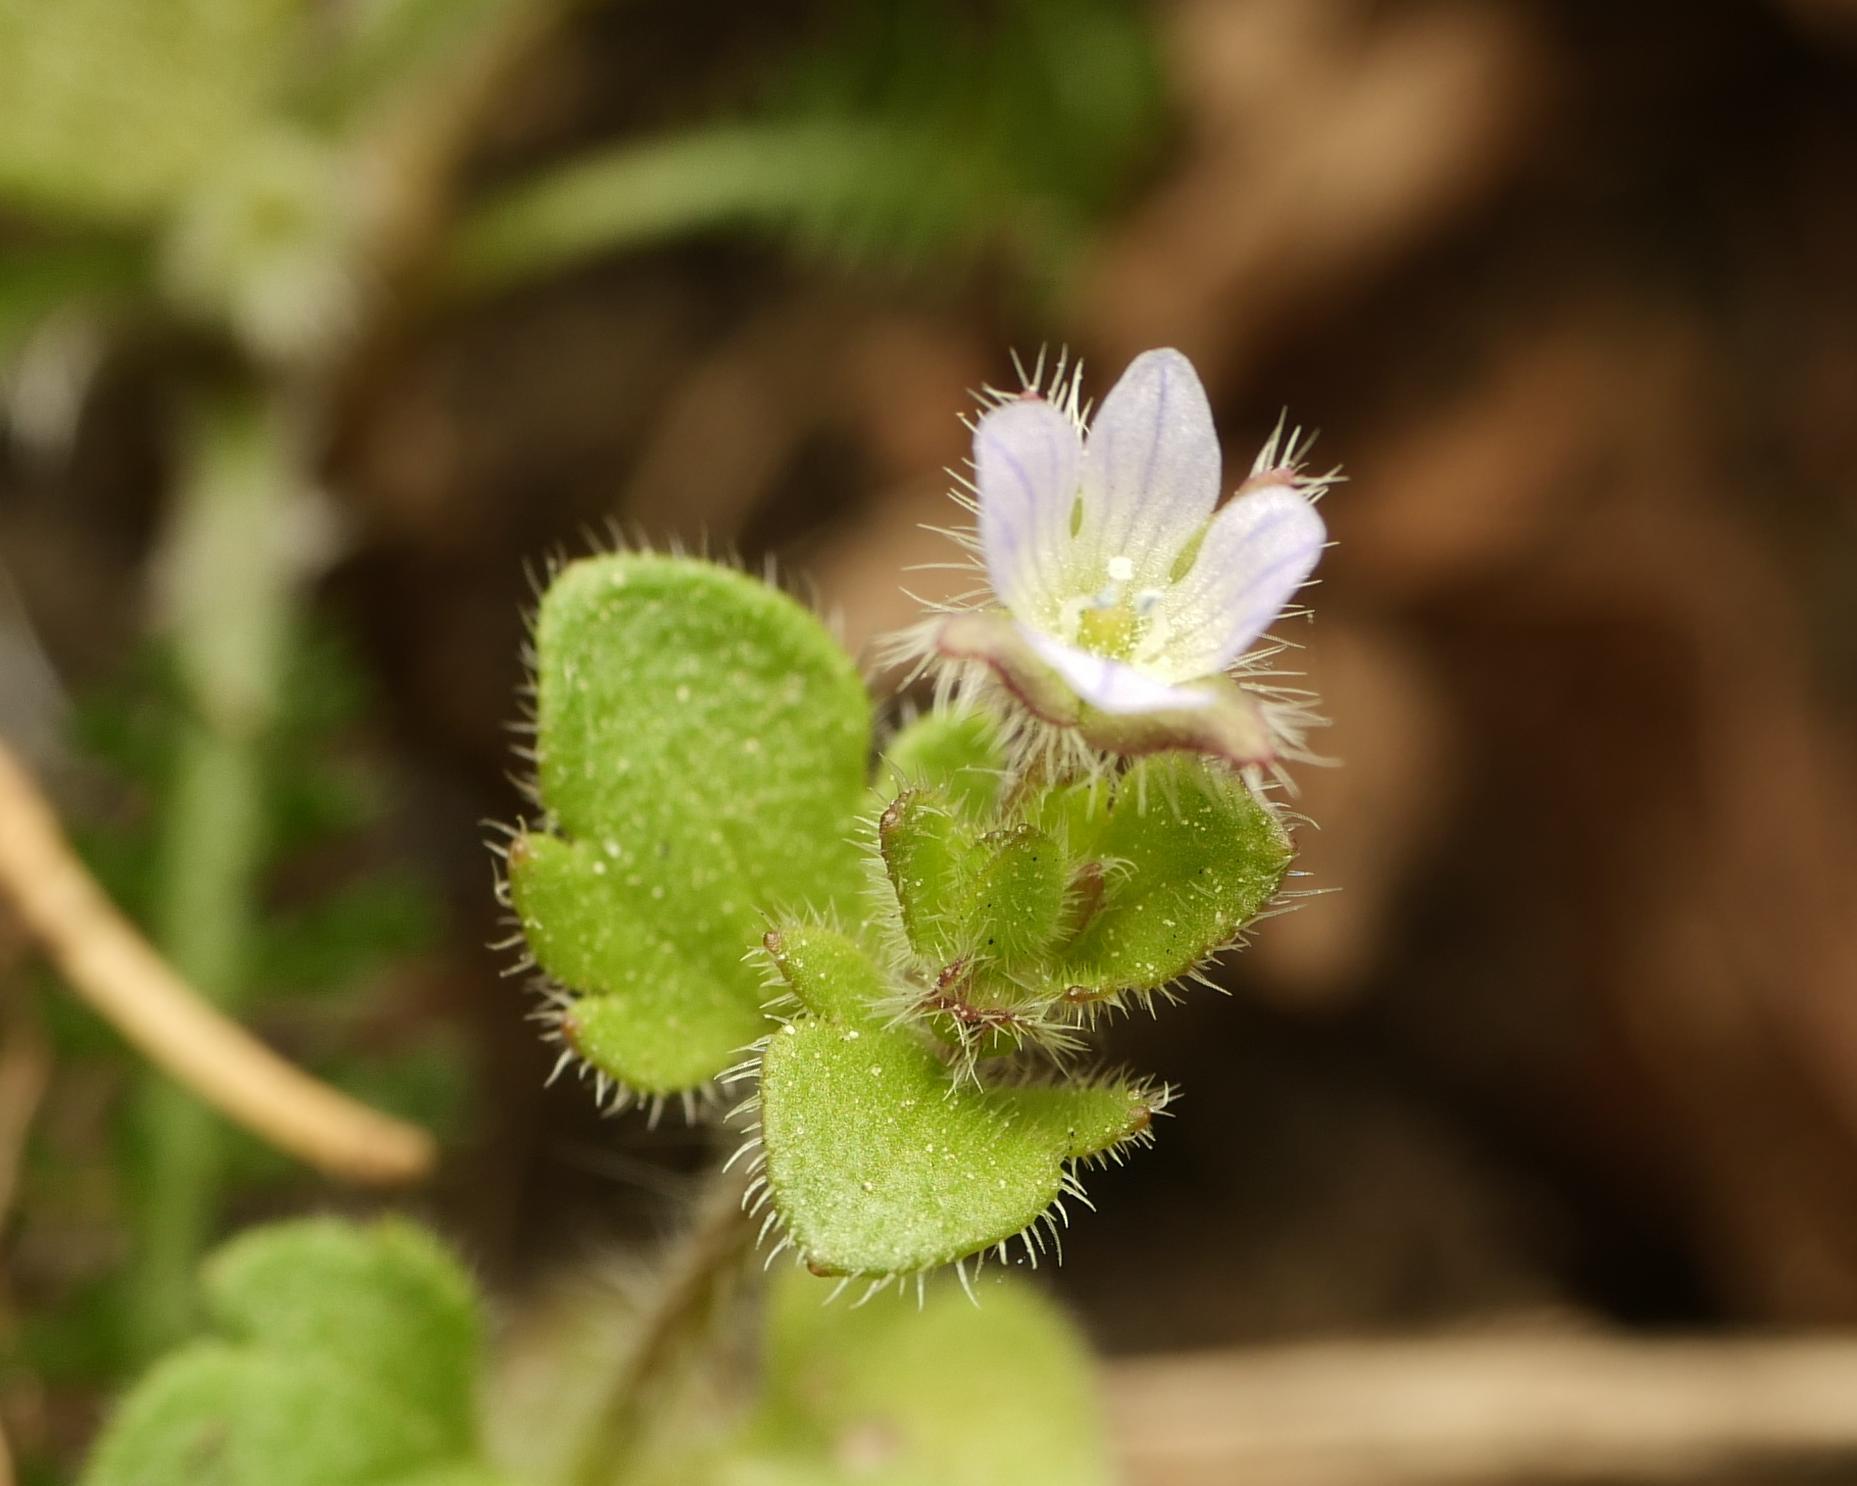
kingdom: Plantae
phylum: Tracheophyta
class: Magnoliopsida
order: Lamiales
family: Plantaginaceae
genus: Veronica
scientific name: Veronica sublobata
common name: False ivy-leaved speedwell
